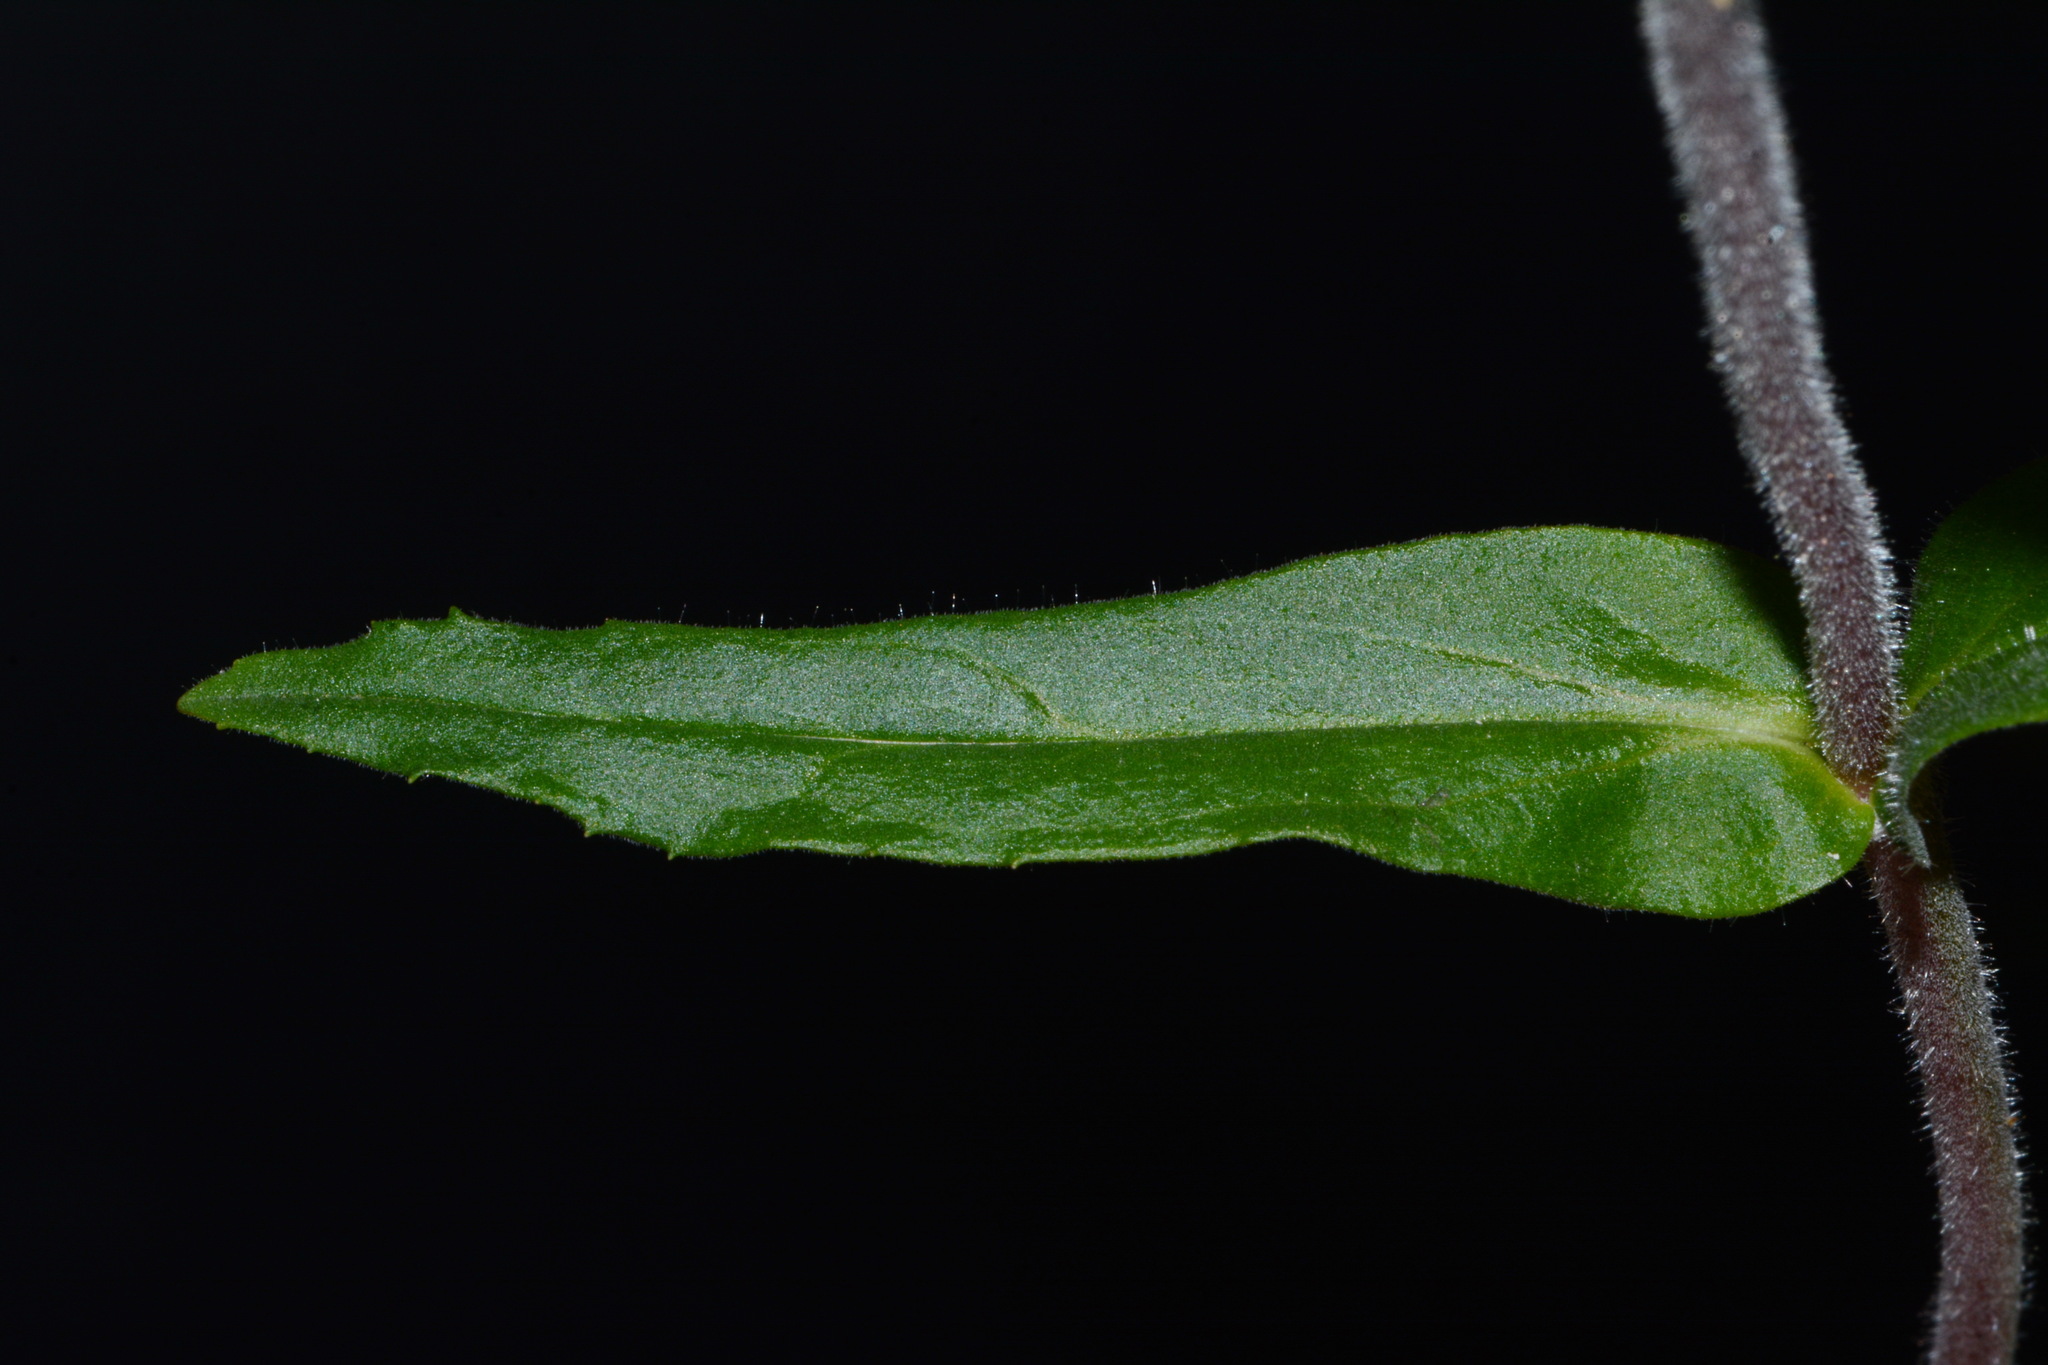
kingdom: Plantae
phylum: Tracheophyta
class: Magnoliopsida
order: Lamiales
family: Plantaginaceae
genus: Penstemon
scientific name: Penstemon australis
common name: Southeastern beardtongue
